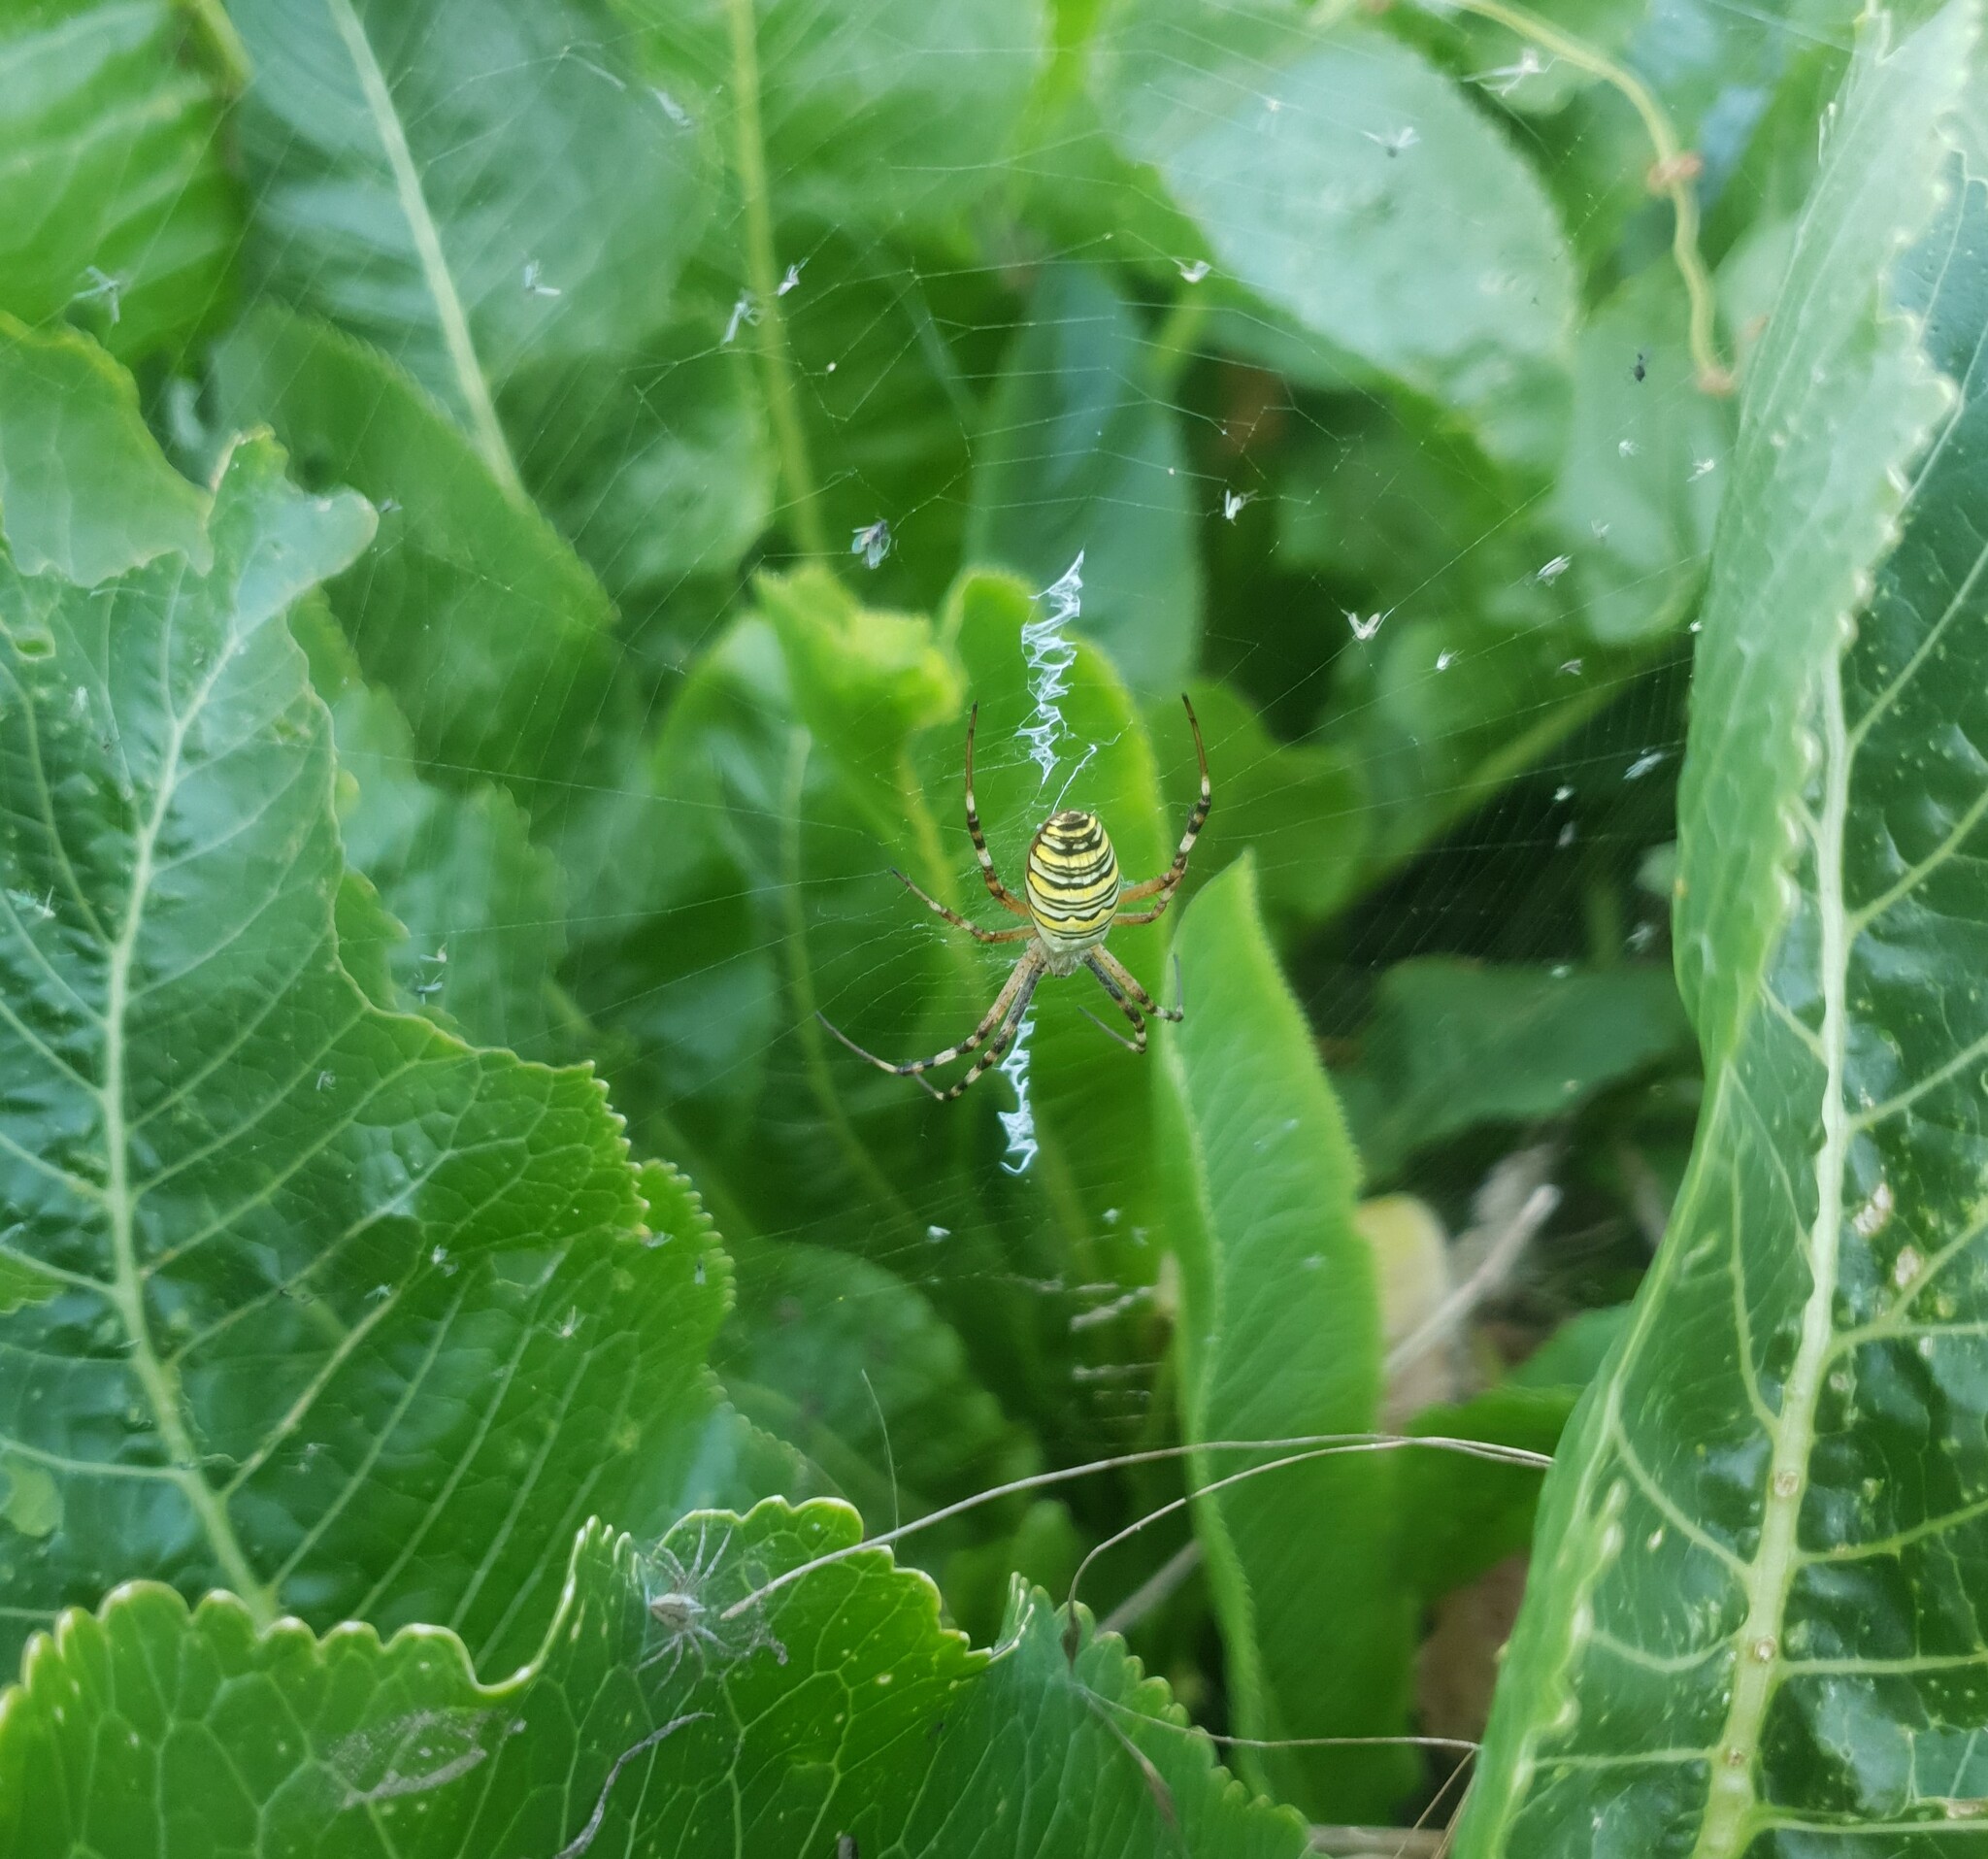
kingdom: Animalia
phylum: Arthropoda
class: Arachnida
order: Araneae
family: Araneidae
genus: Argiope
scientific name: Argiope bruennichi
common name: Wasp spider
